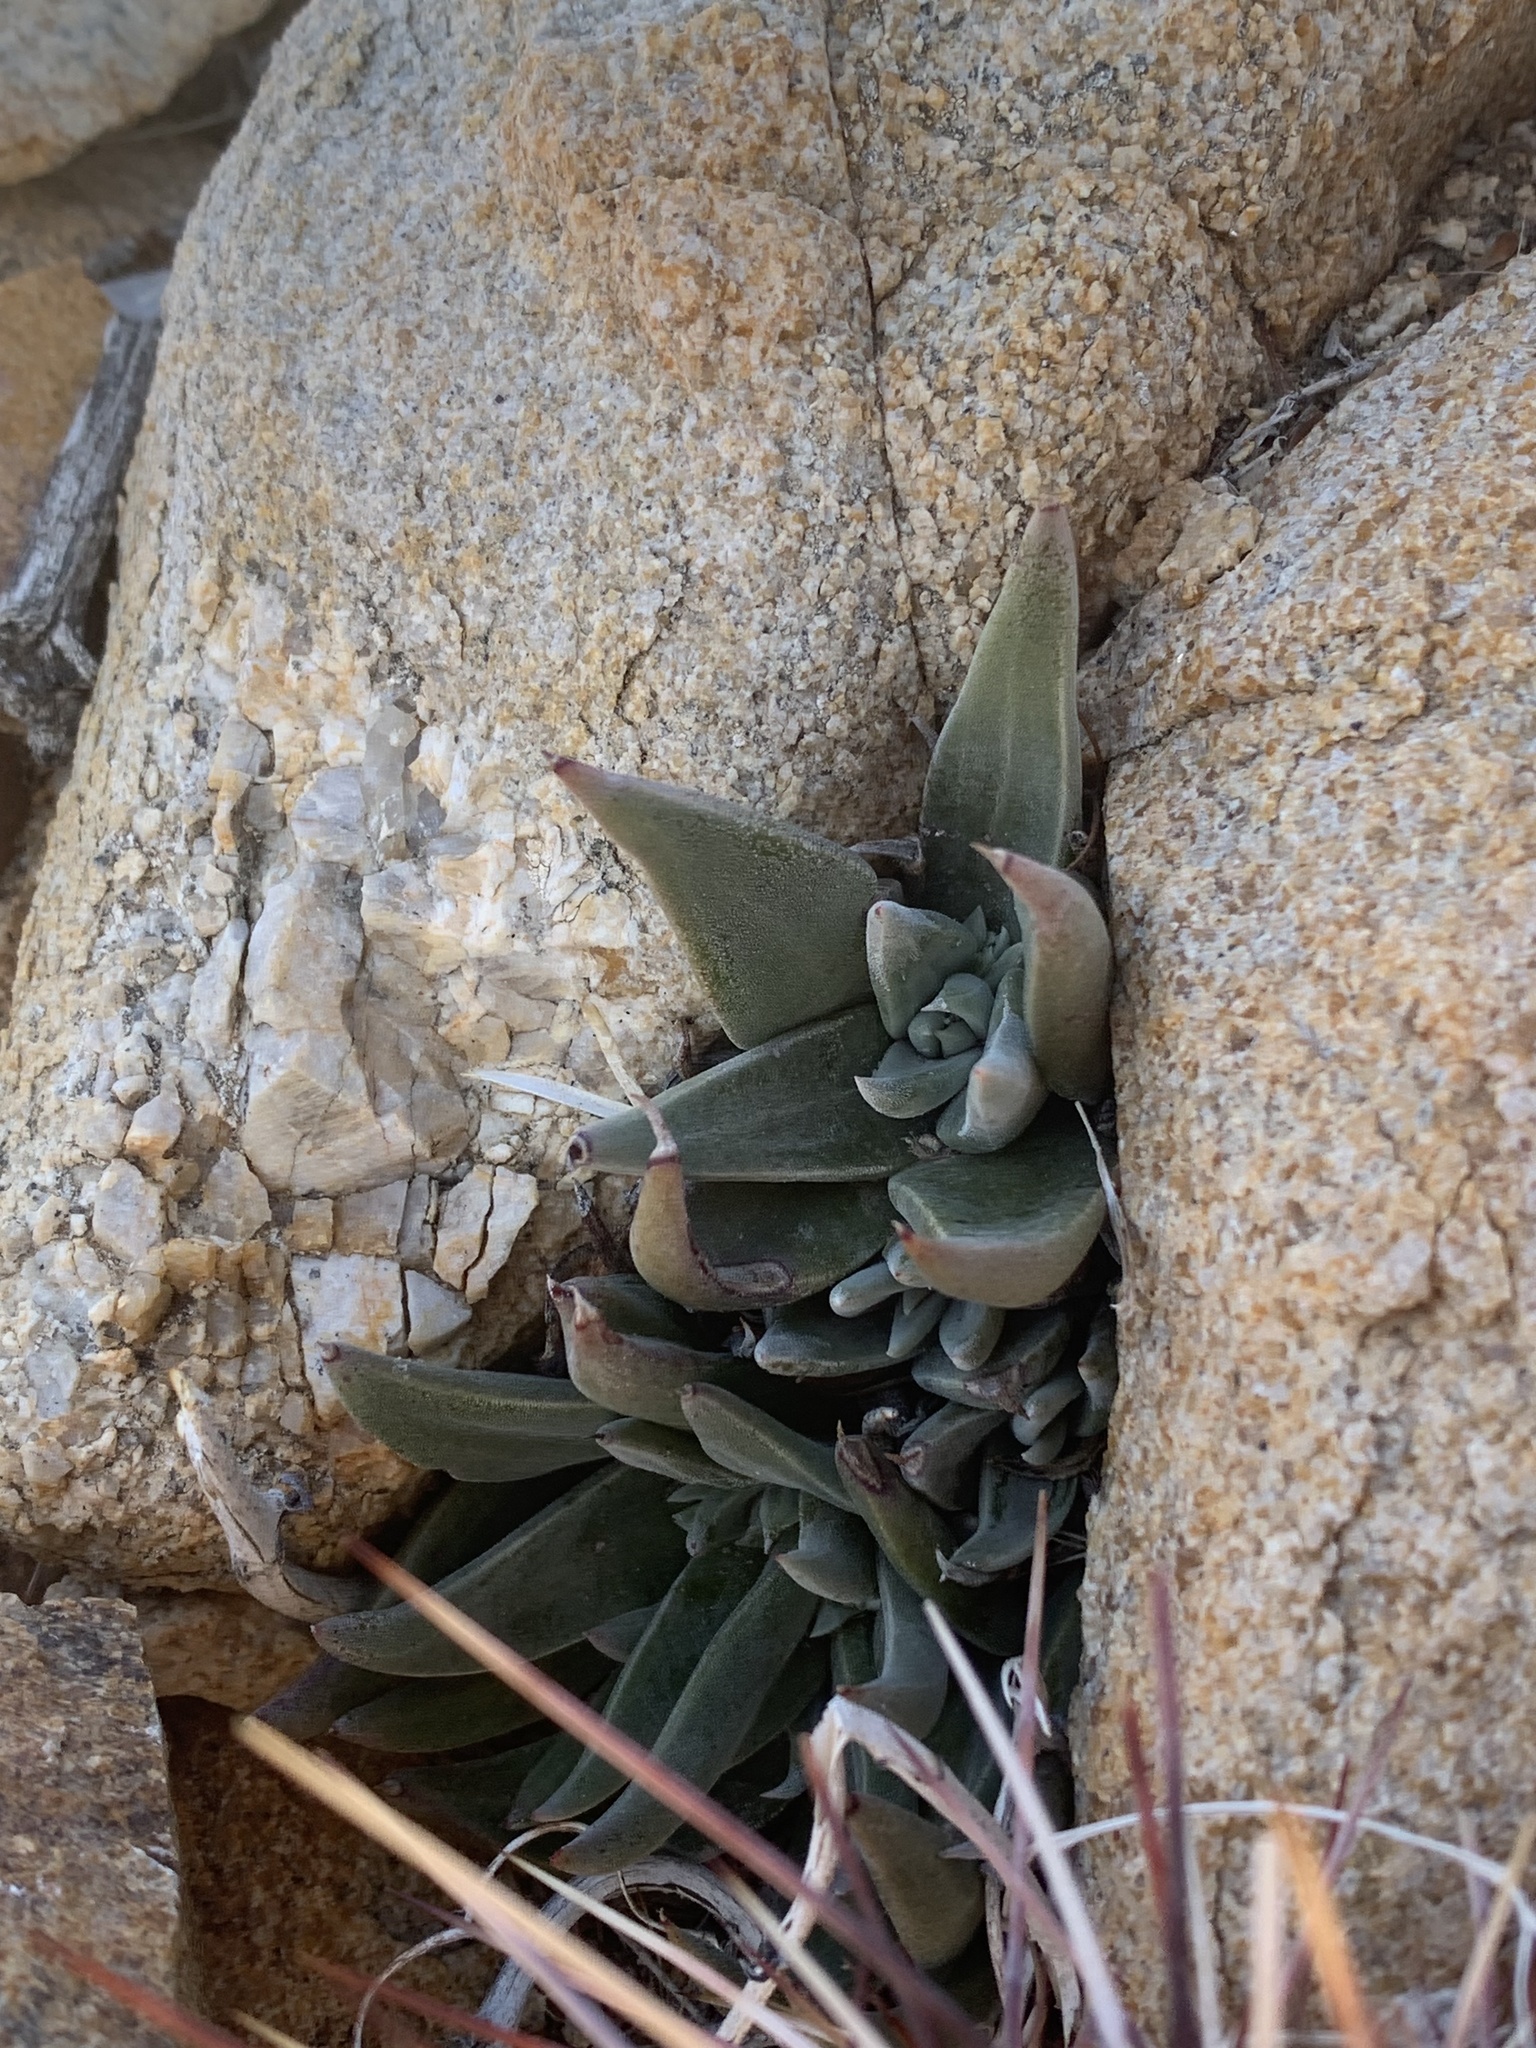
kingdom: Plantae
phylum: Tracheophyta
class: Magnoliopsida
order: Saxifragales
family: Crassulaceae
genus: Dudleya
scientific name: Dudleya saxosa
